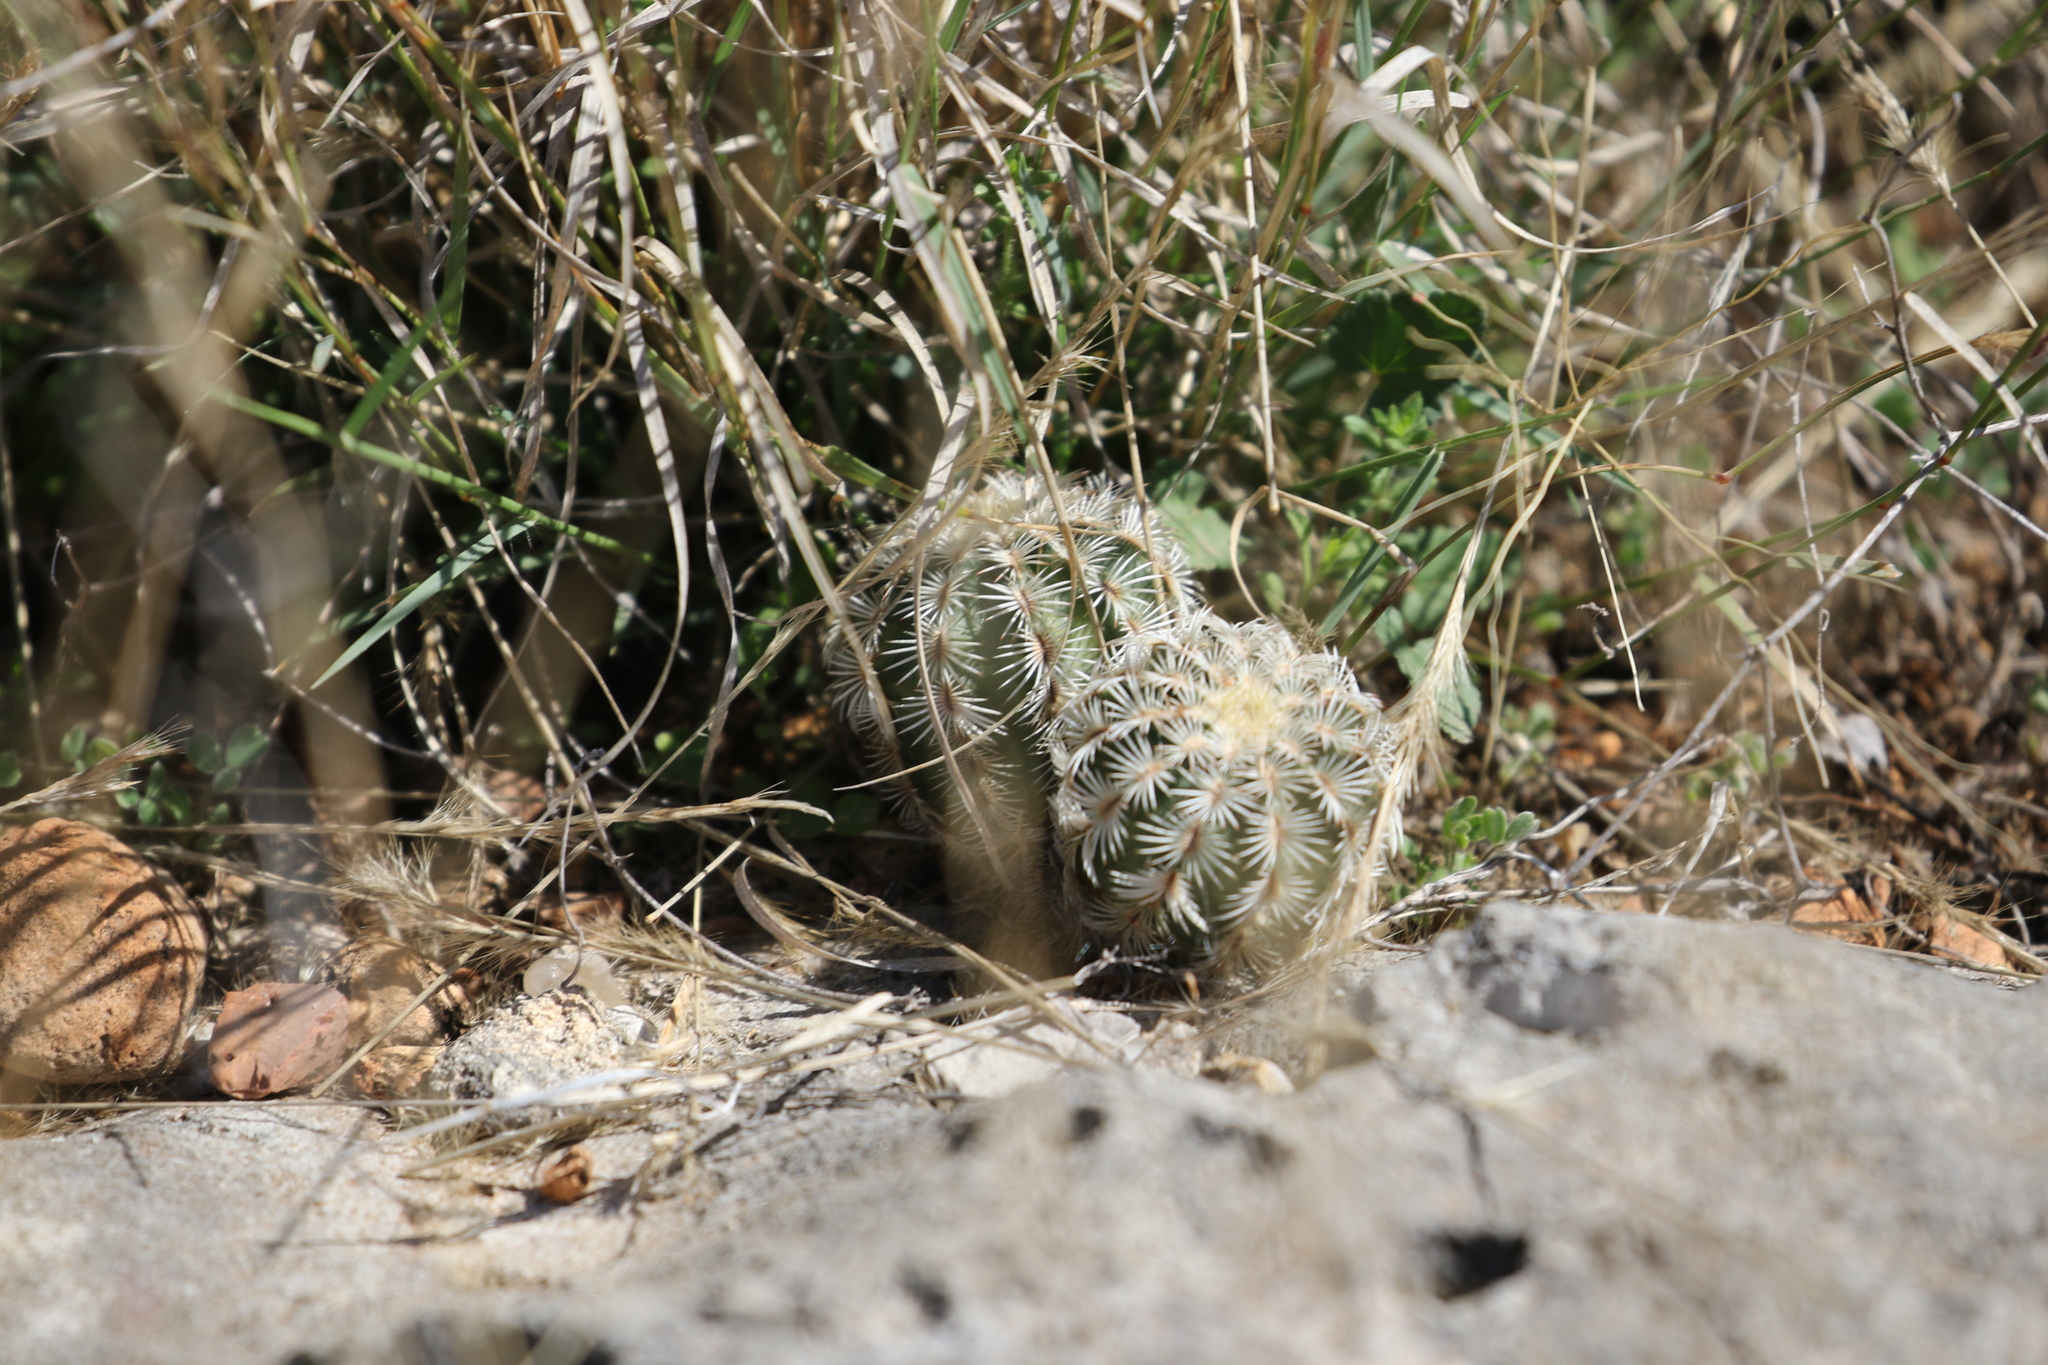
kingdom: Plantae
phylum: Tracheophyta
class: Magnoliopsida
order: Caryophyllales
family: Cactaceae
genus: Echinocereus
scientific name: Echinocereus reichenbachii
